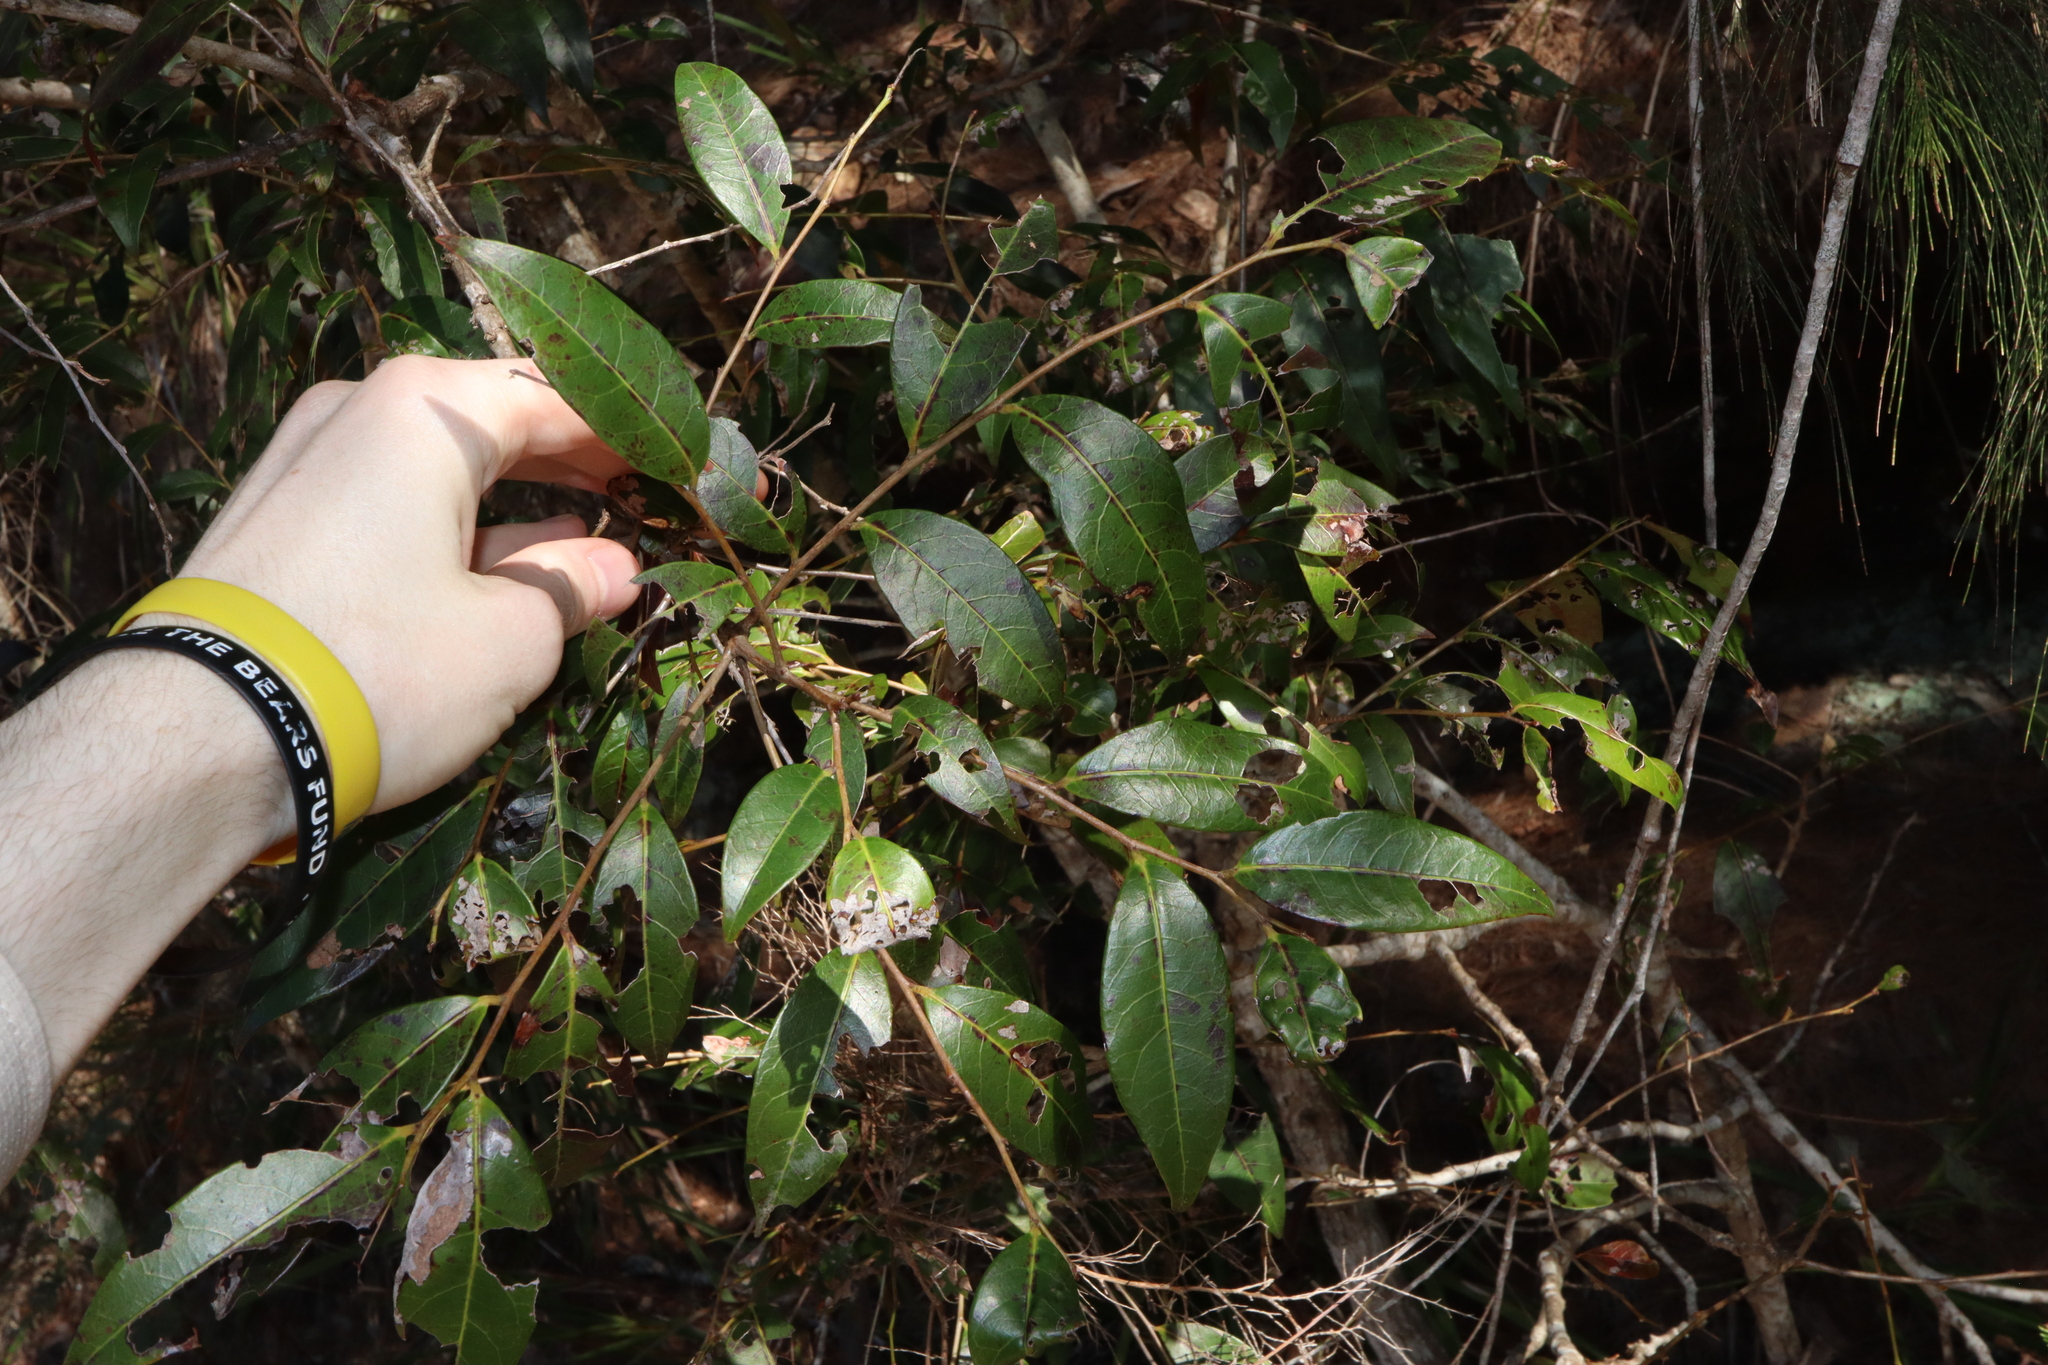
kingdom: Plantae
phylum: Tracheophyta
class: Magnoliopsida
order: Malpighiales
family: Phyllanthaceae
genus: Glochidion
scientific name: Glochidion ferdinandi
